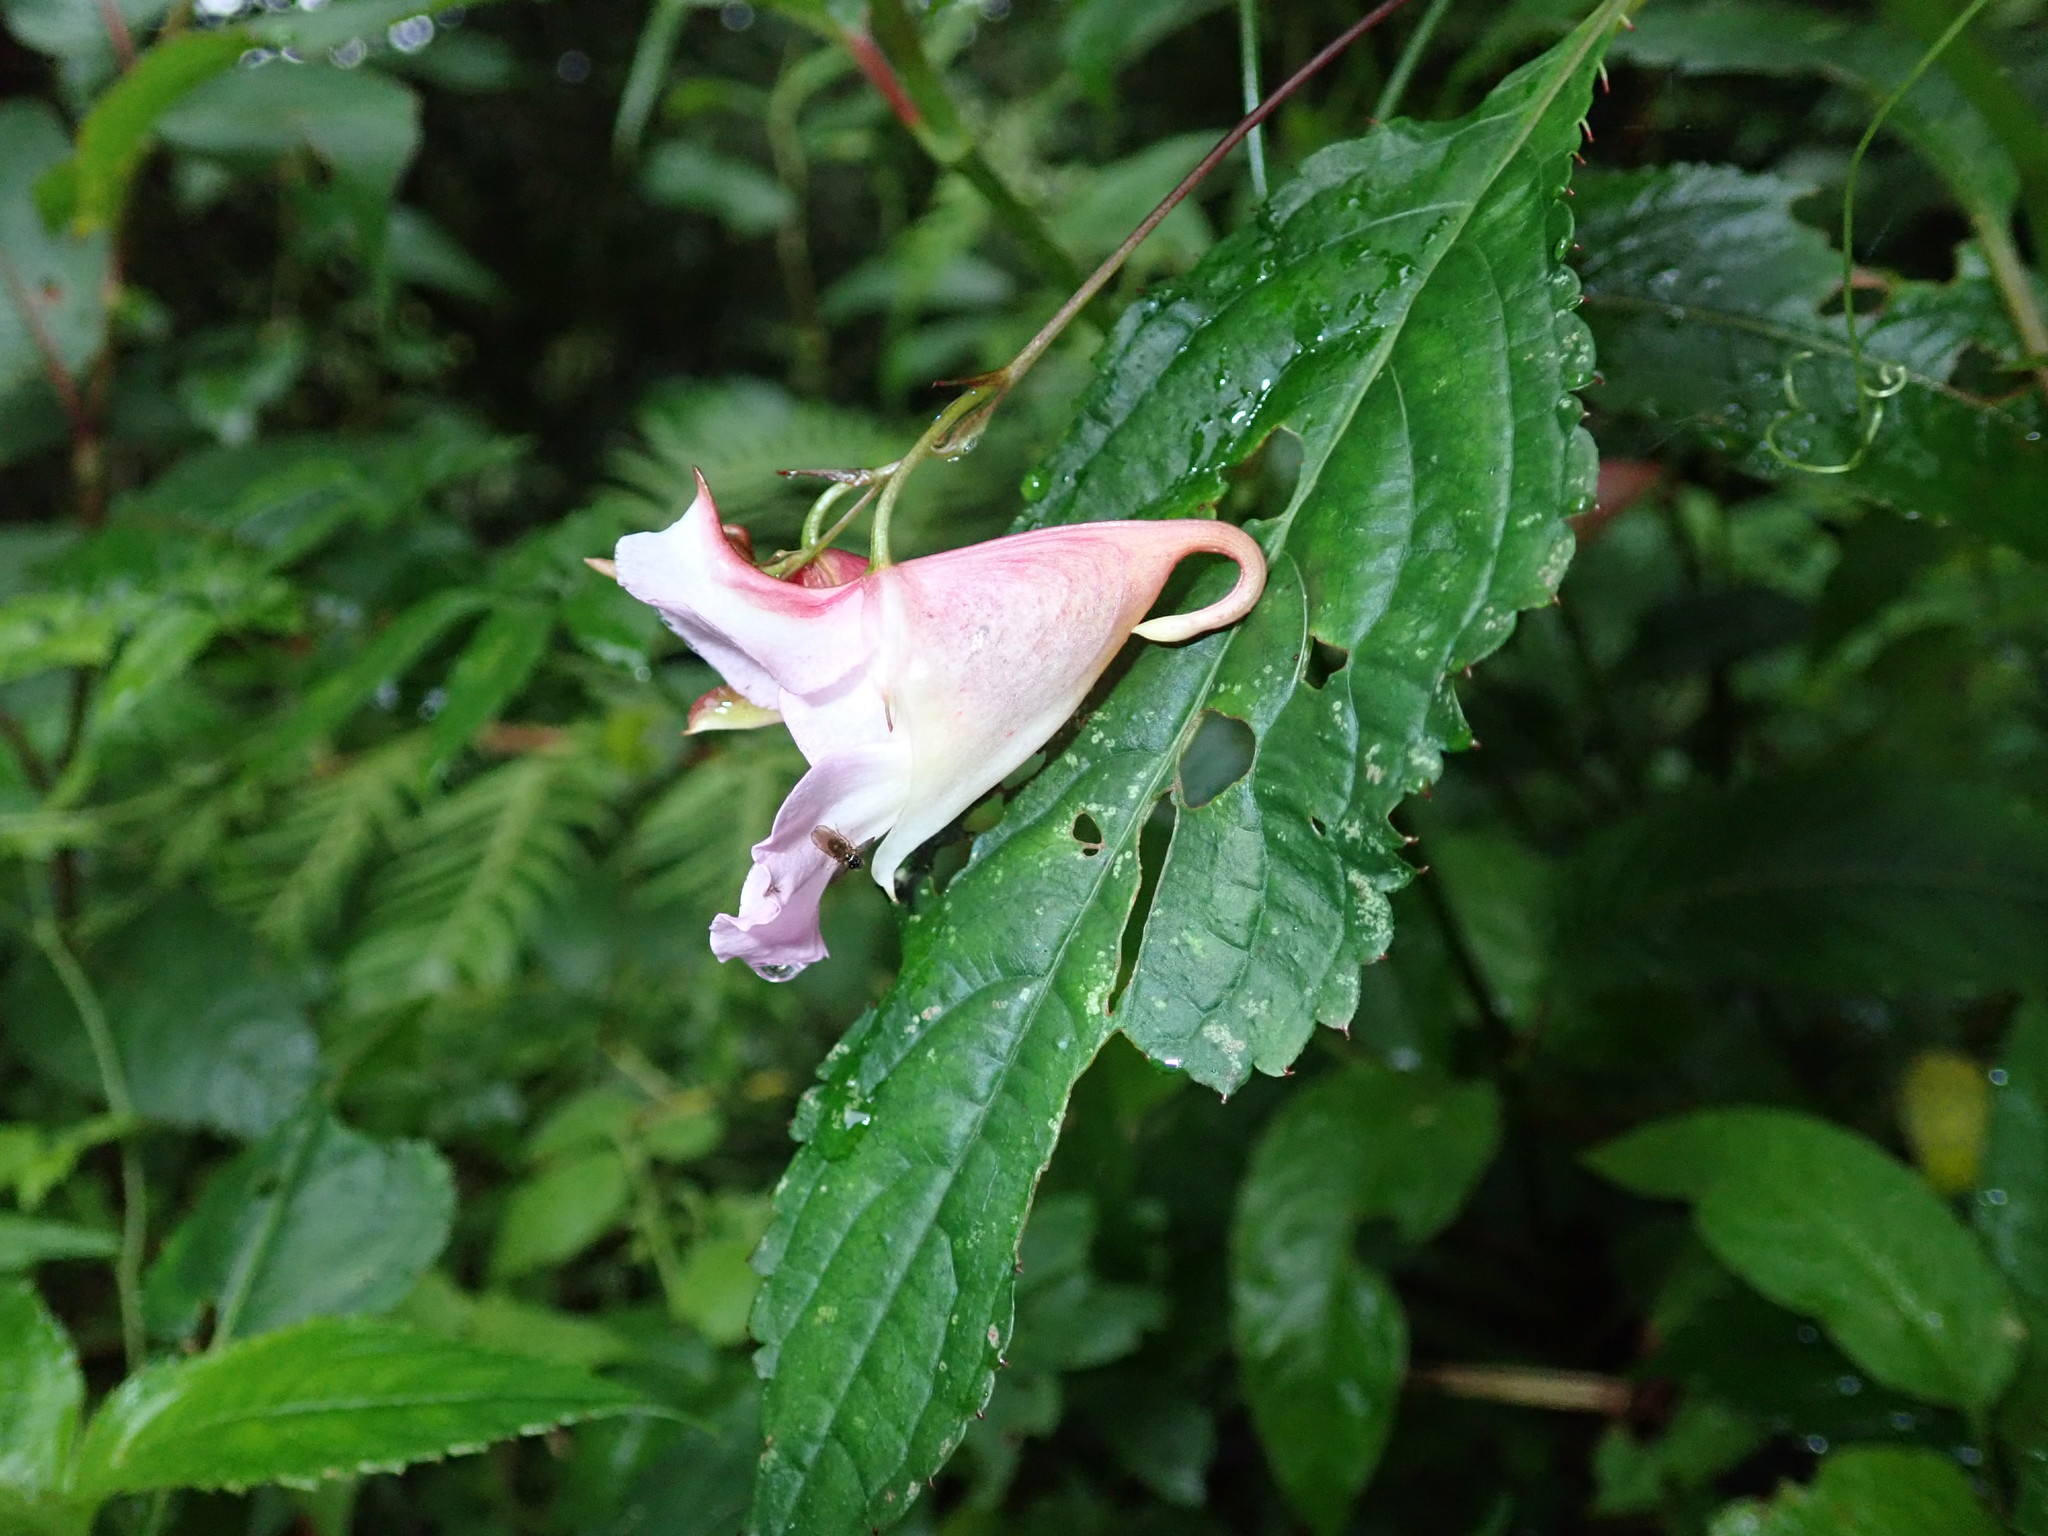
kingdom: Plantae
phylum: Tracheophyta
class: Magnoliopsida
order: Ericales
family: Balsaminaceae
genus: Impatiens
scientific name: Impatiens uniflora
